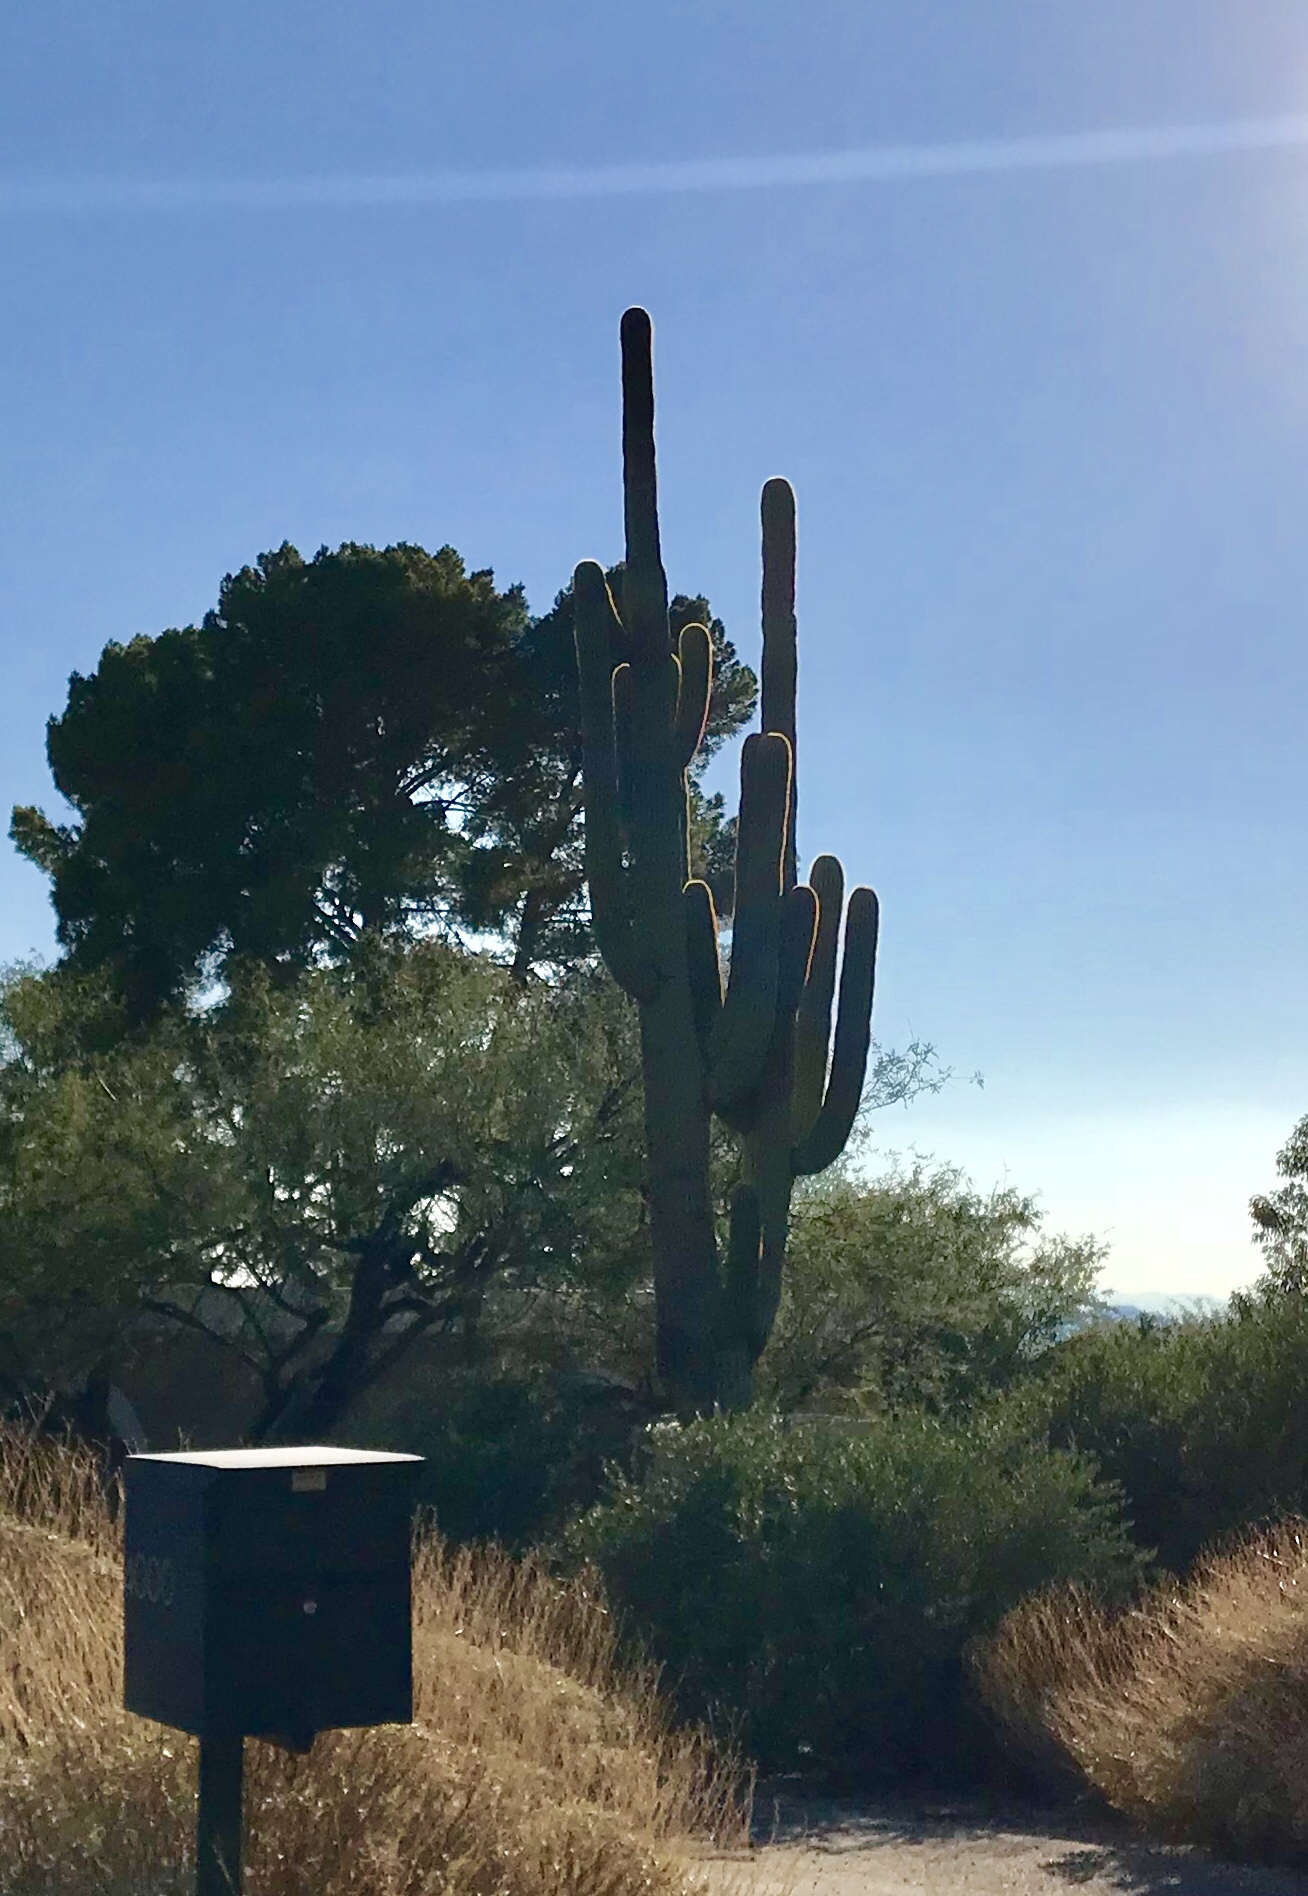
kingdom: Plantae
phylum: Tracheophyta
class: Magnoliopsida
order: Caryophyllales
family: Cactaceae
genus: Carnegiea
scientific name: Carnegiea gigantea
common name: Saguaro
